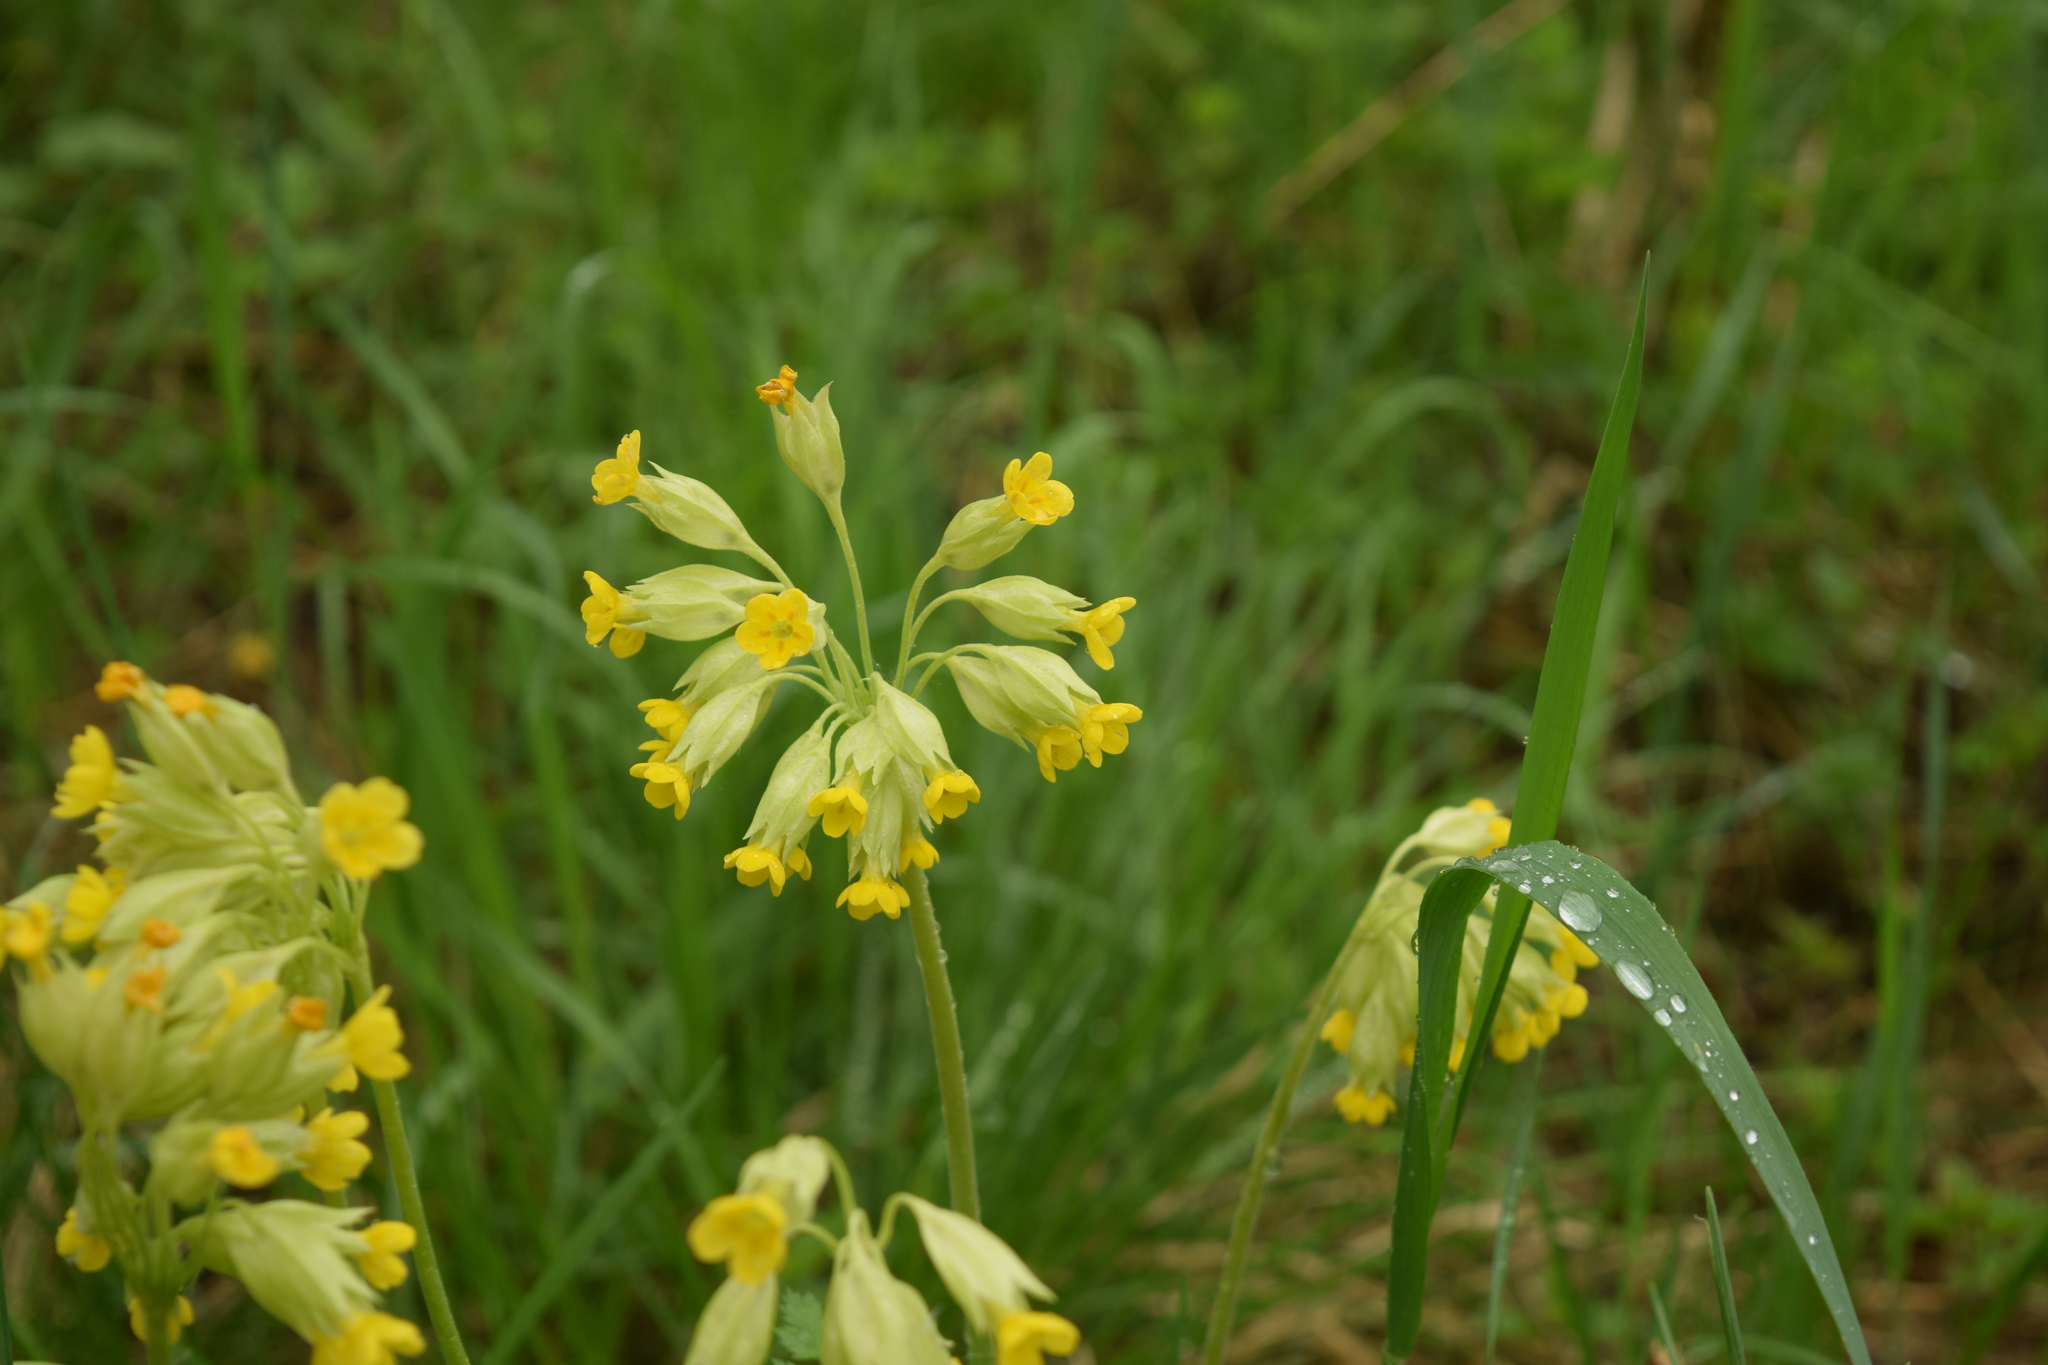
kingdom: Plantae
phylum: Tracheophyta
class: Magnoliopsida
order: Ericales
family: Primulaceae
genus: Primula
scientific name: Primula veris
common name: Cowslip
